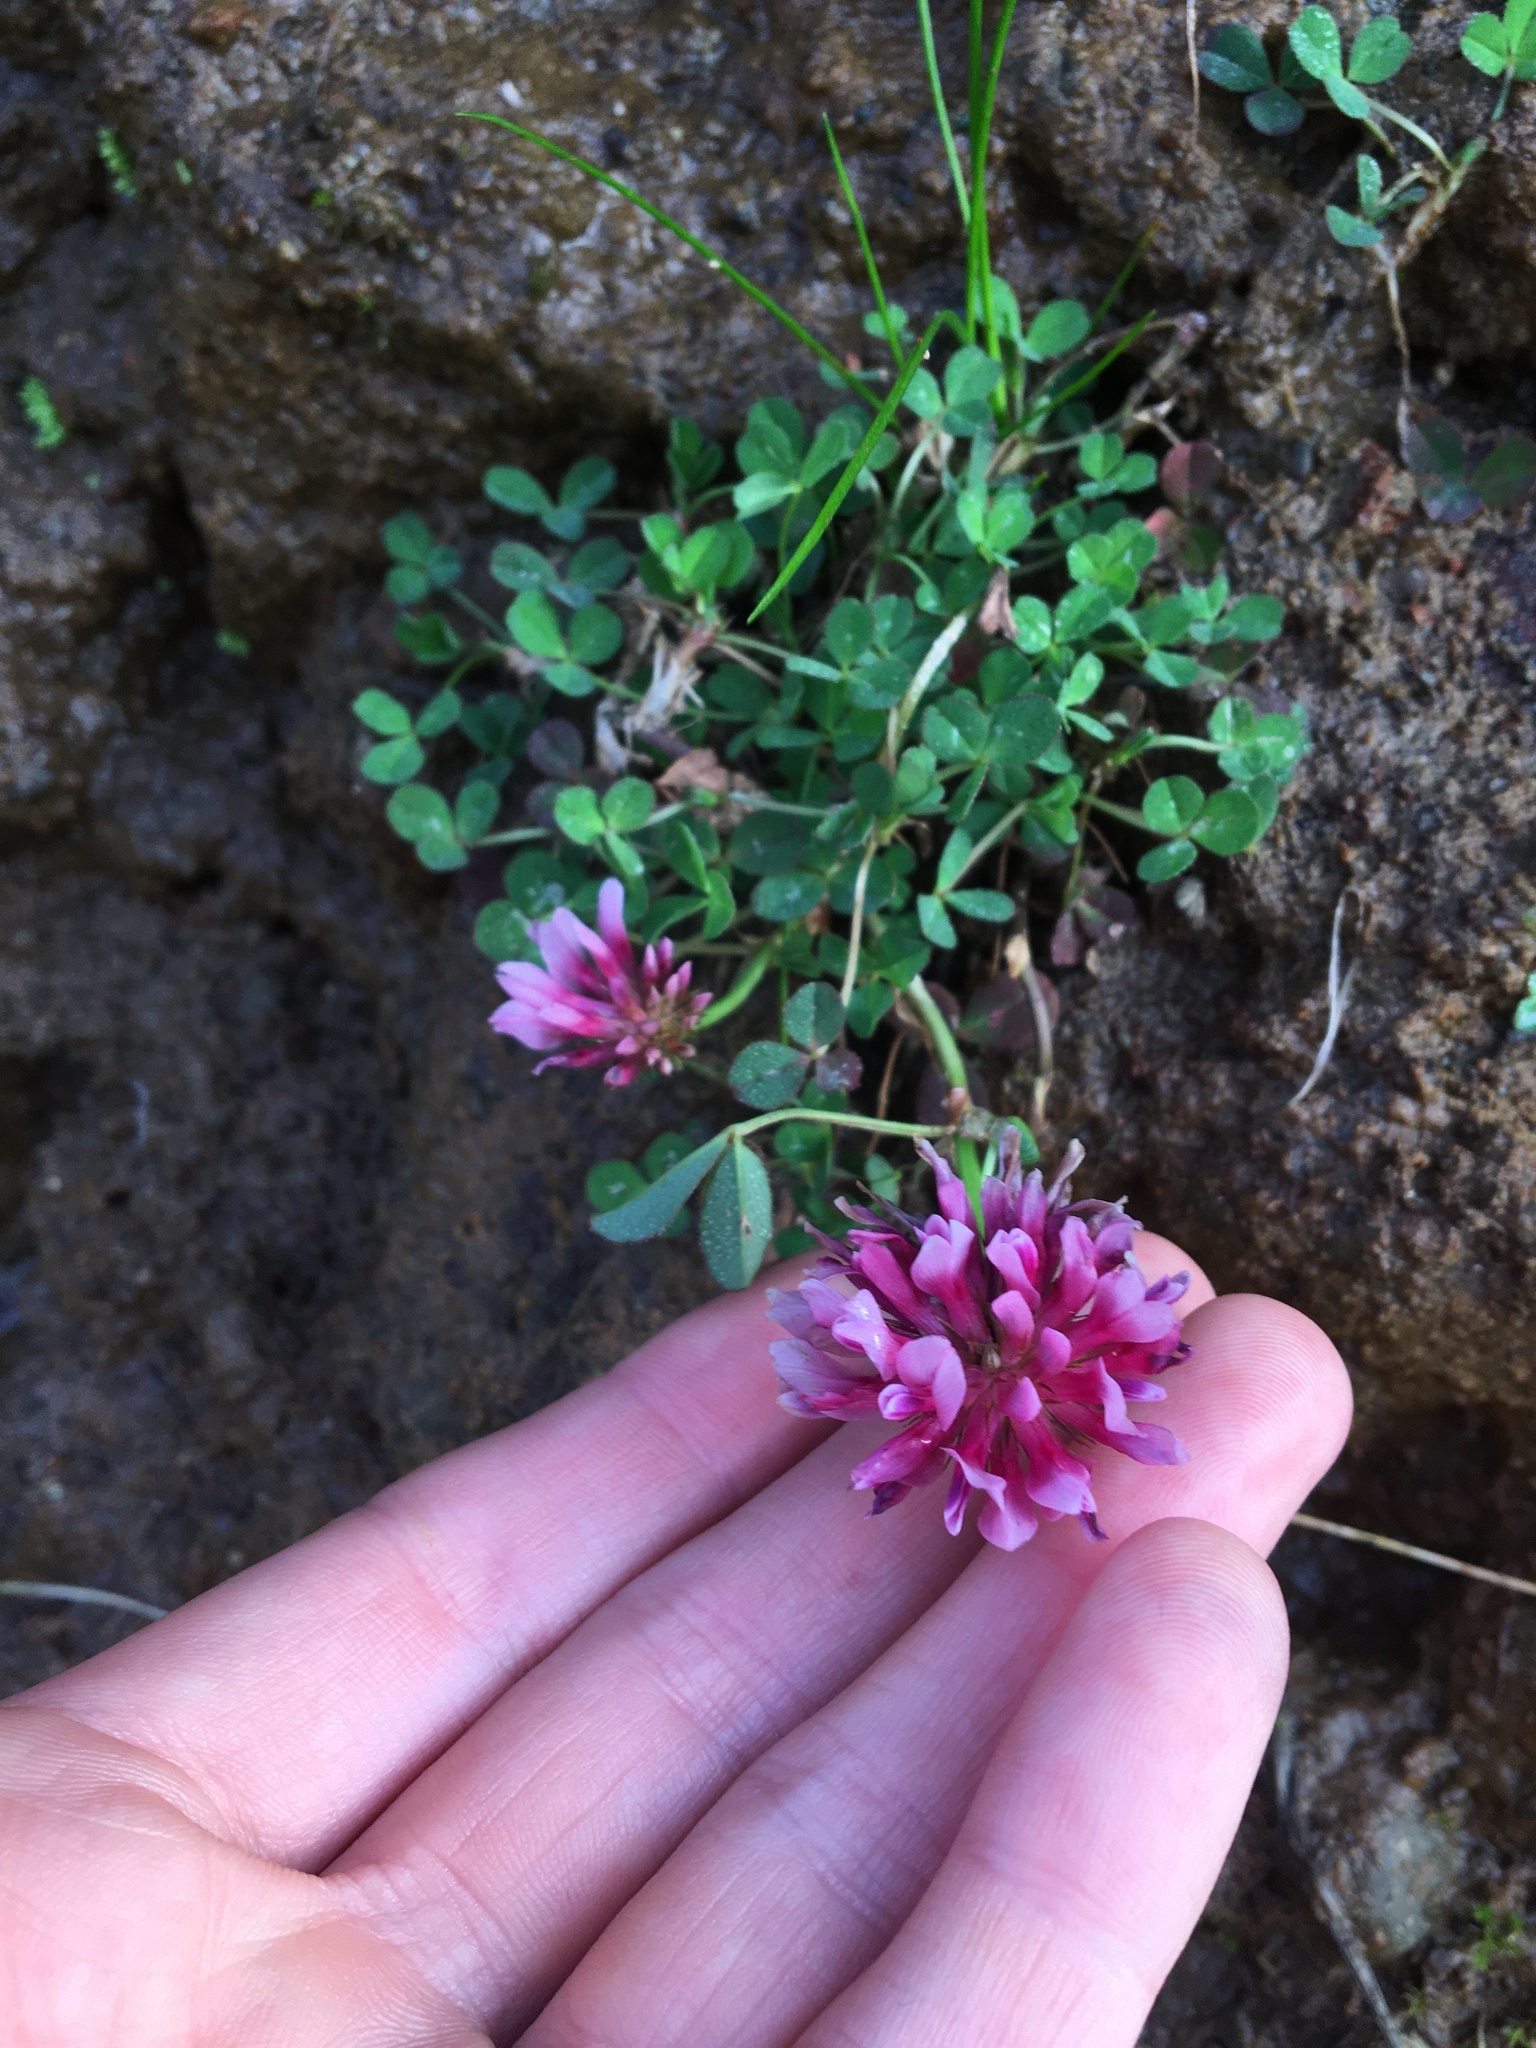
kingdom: Plantae
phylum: Tracheophyta
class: Magnoliopsida
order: Fabales
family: Fabaceae
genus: Trifolium
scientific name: Trifolium wormskioldii
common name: Springbank clover
